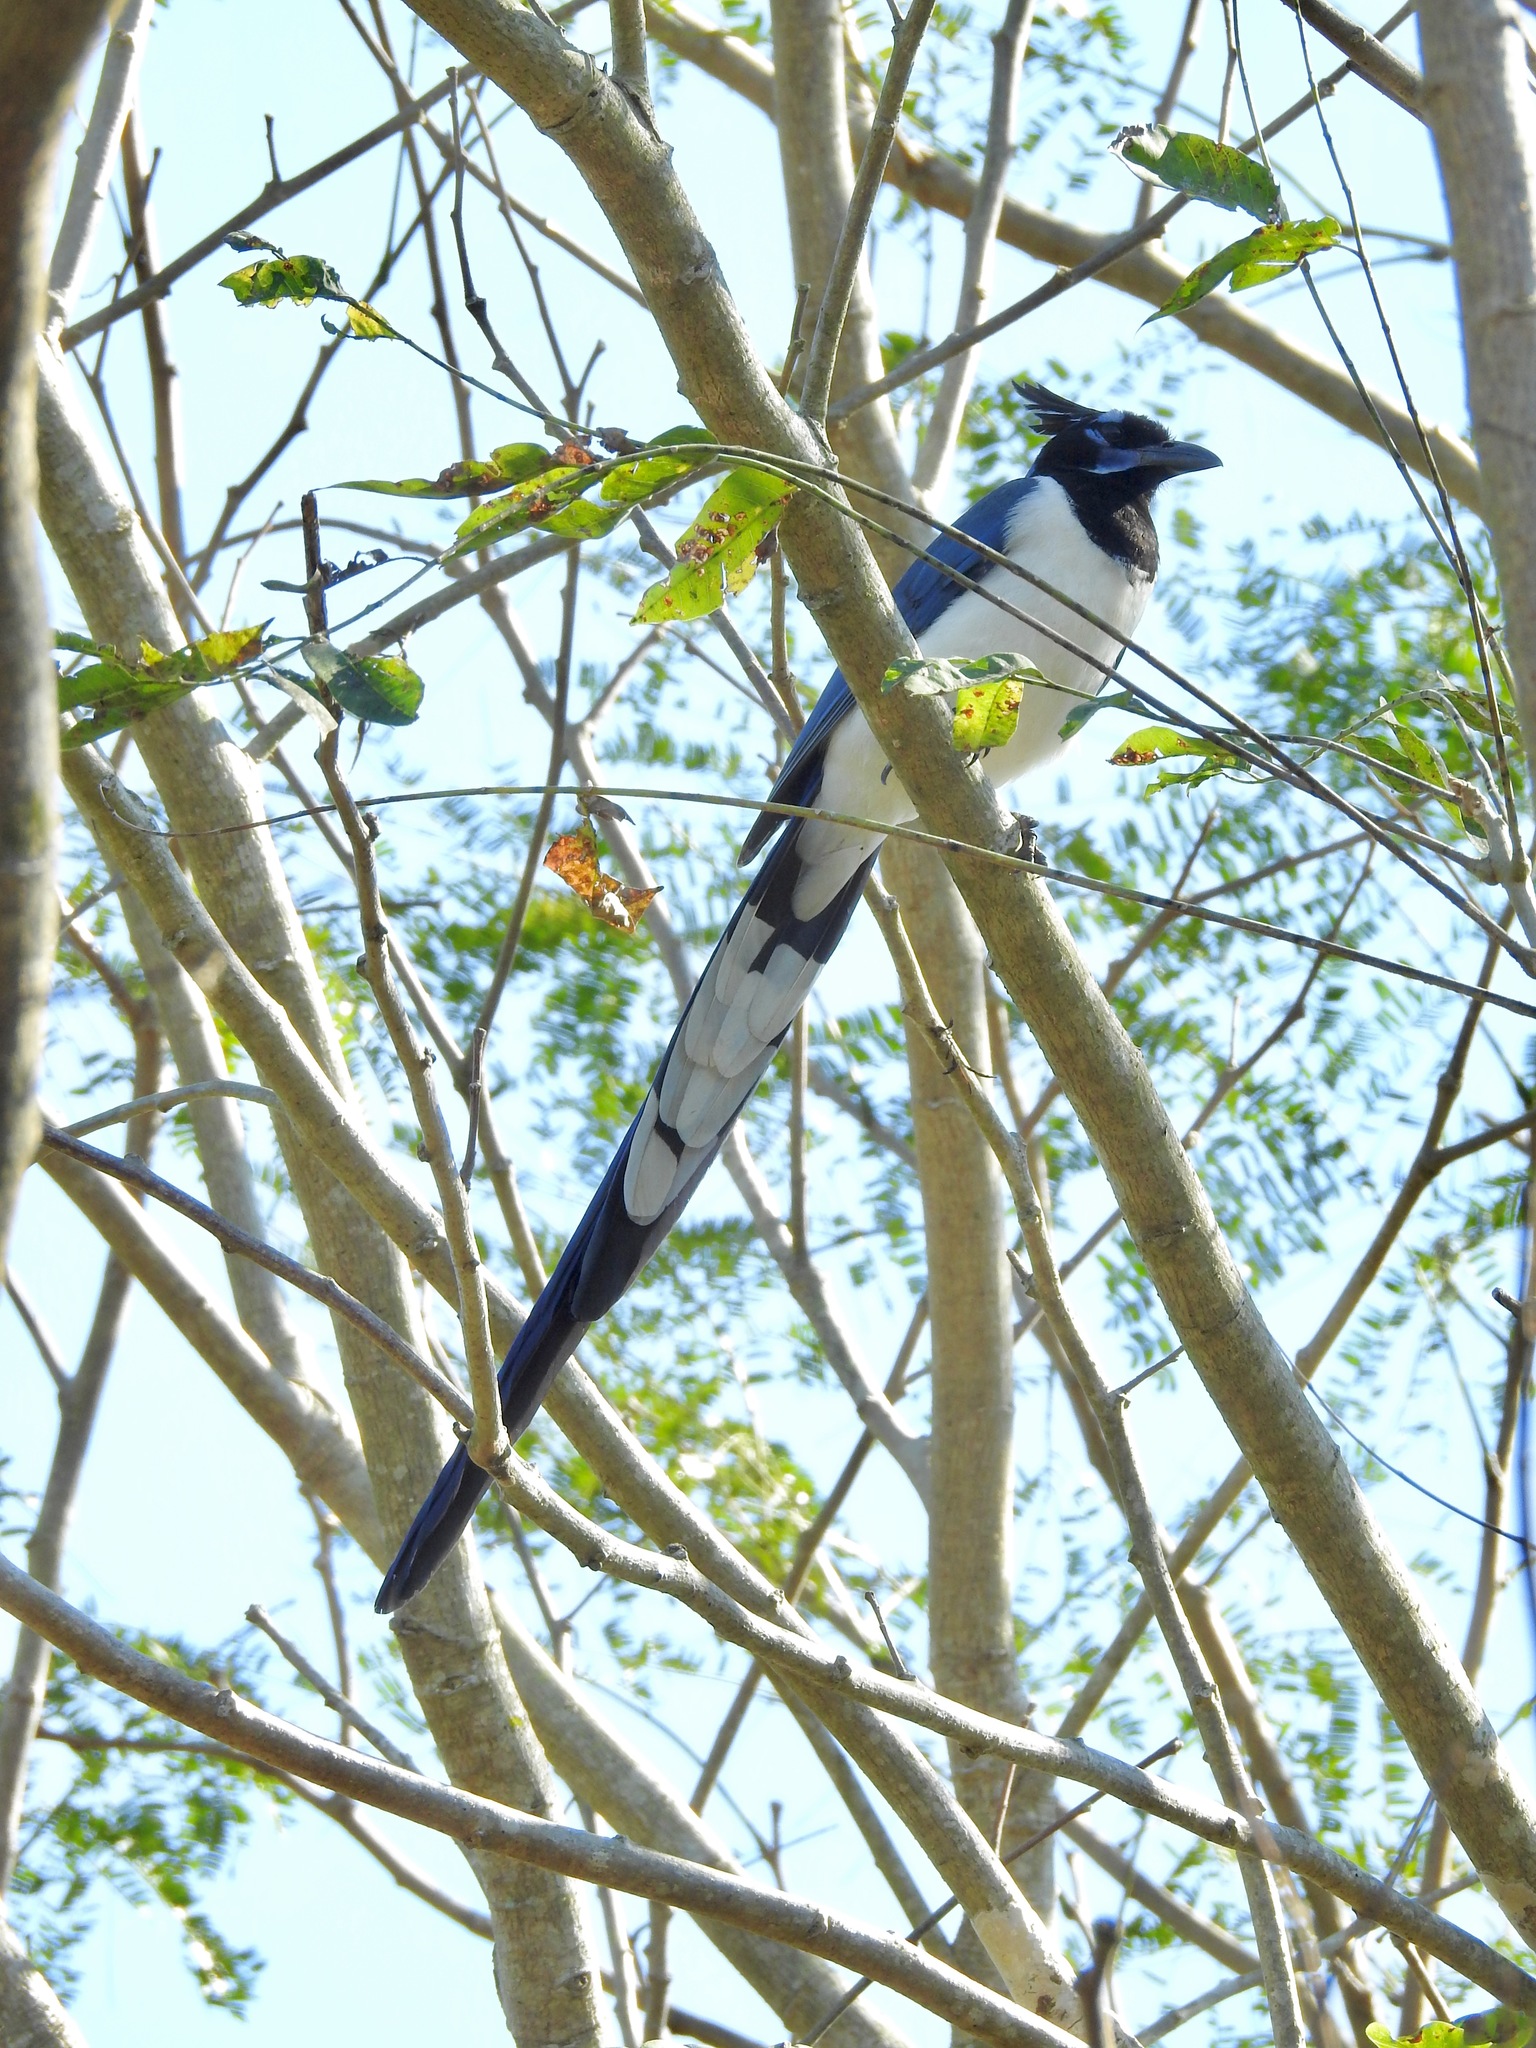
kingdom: Animalia
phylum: Chordata
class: Aves
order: Passeriformes
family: Corvidae
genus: Calocitta
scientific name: Calocitta colliei
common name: Black-throated magpie-jay
